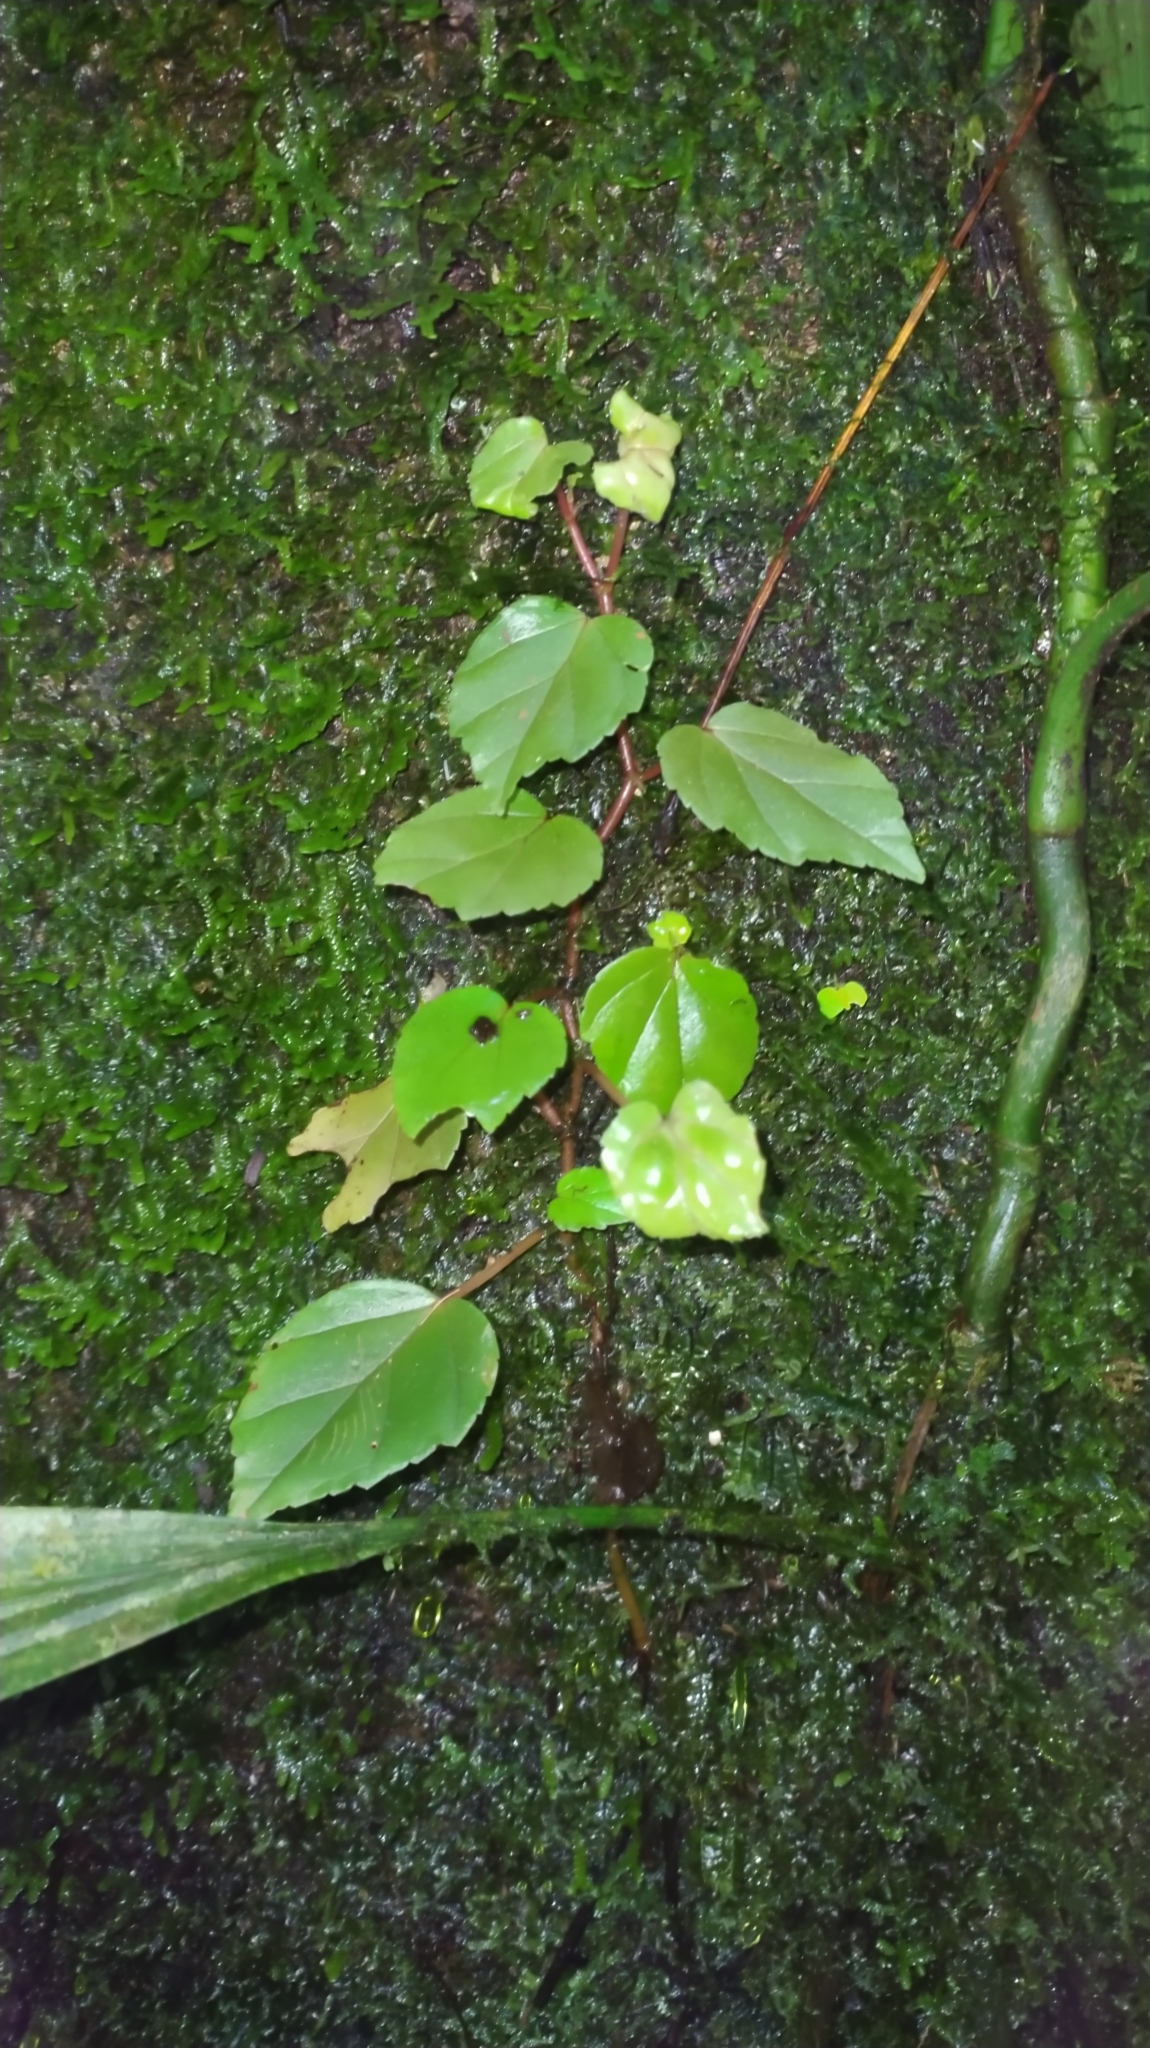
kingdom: Plantae
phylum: Tracheophyta
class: Magnoliopsida
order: Cucurbitales
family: Begoniaceae
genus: Begonia
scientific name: Begonia glabra
